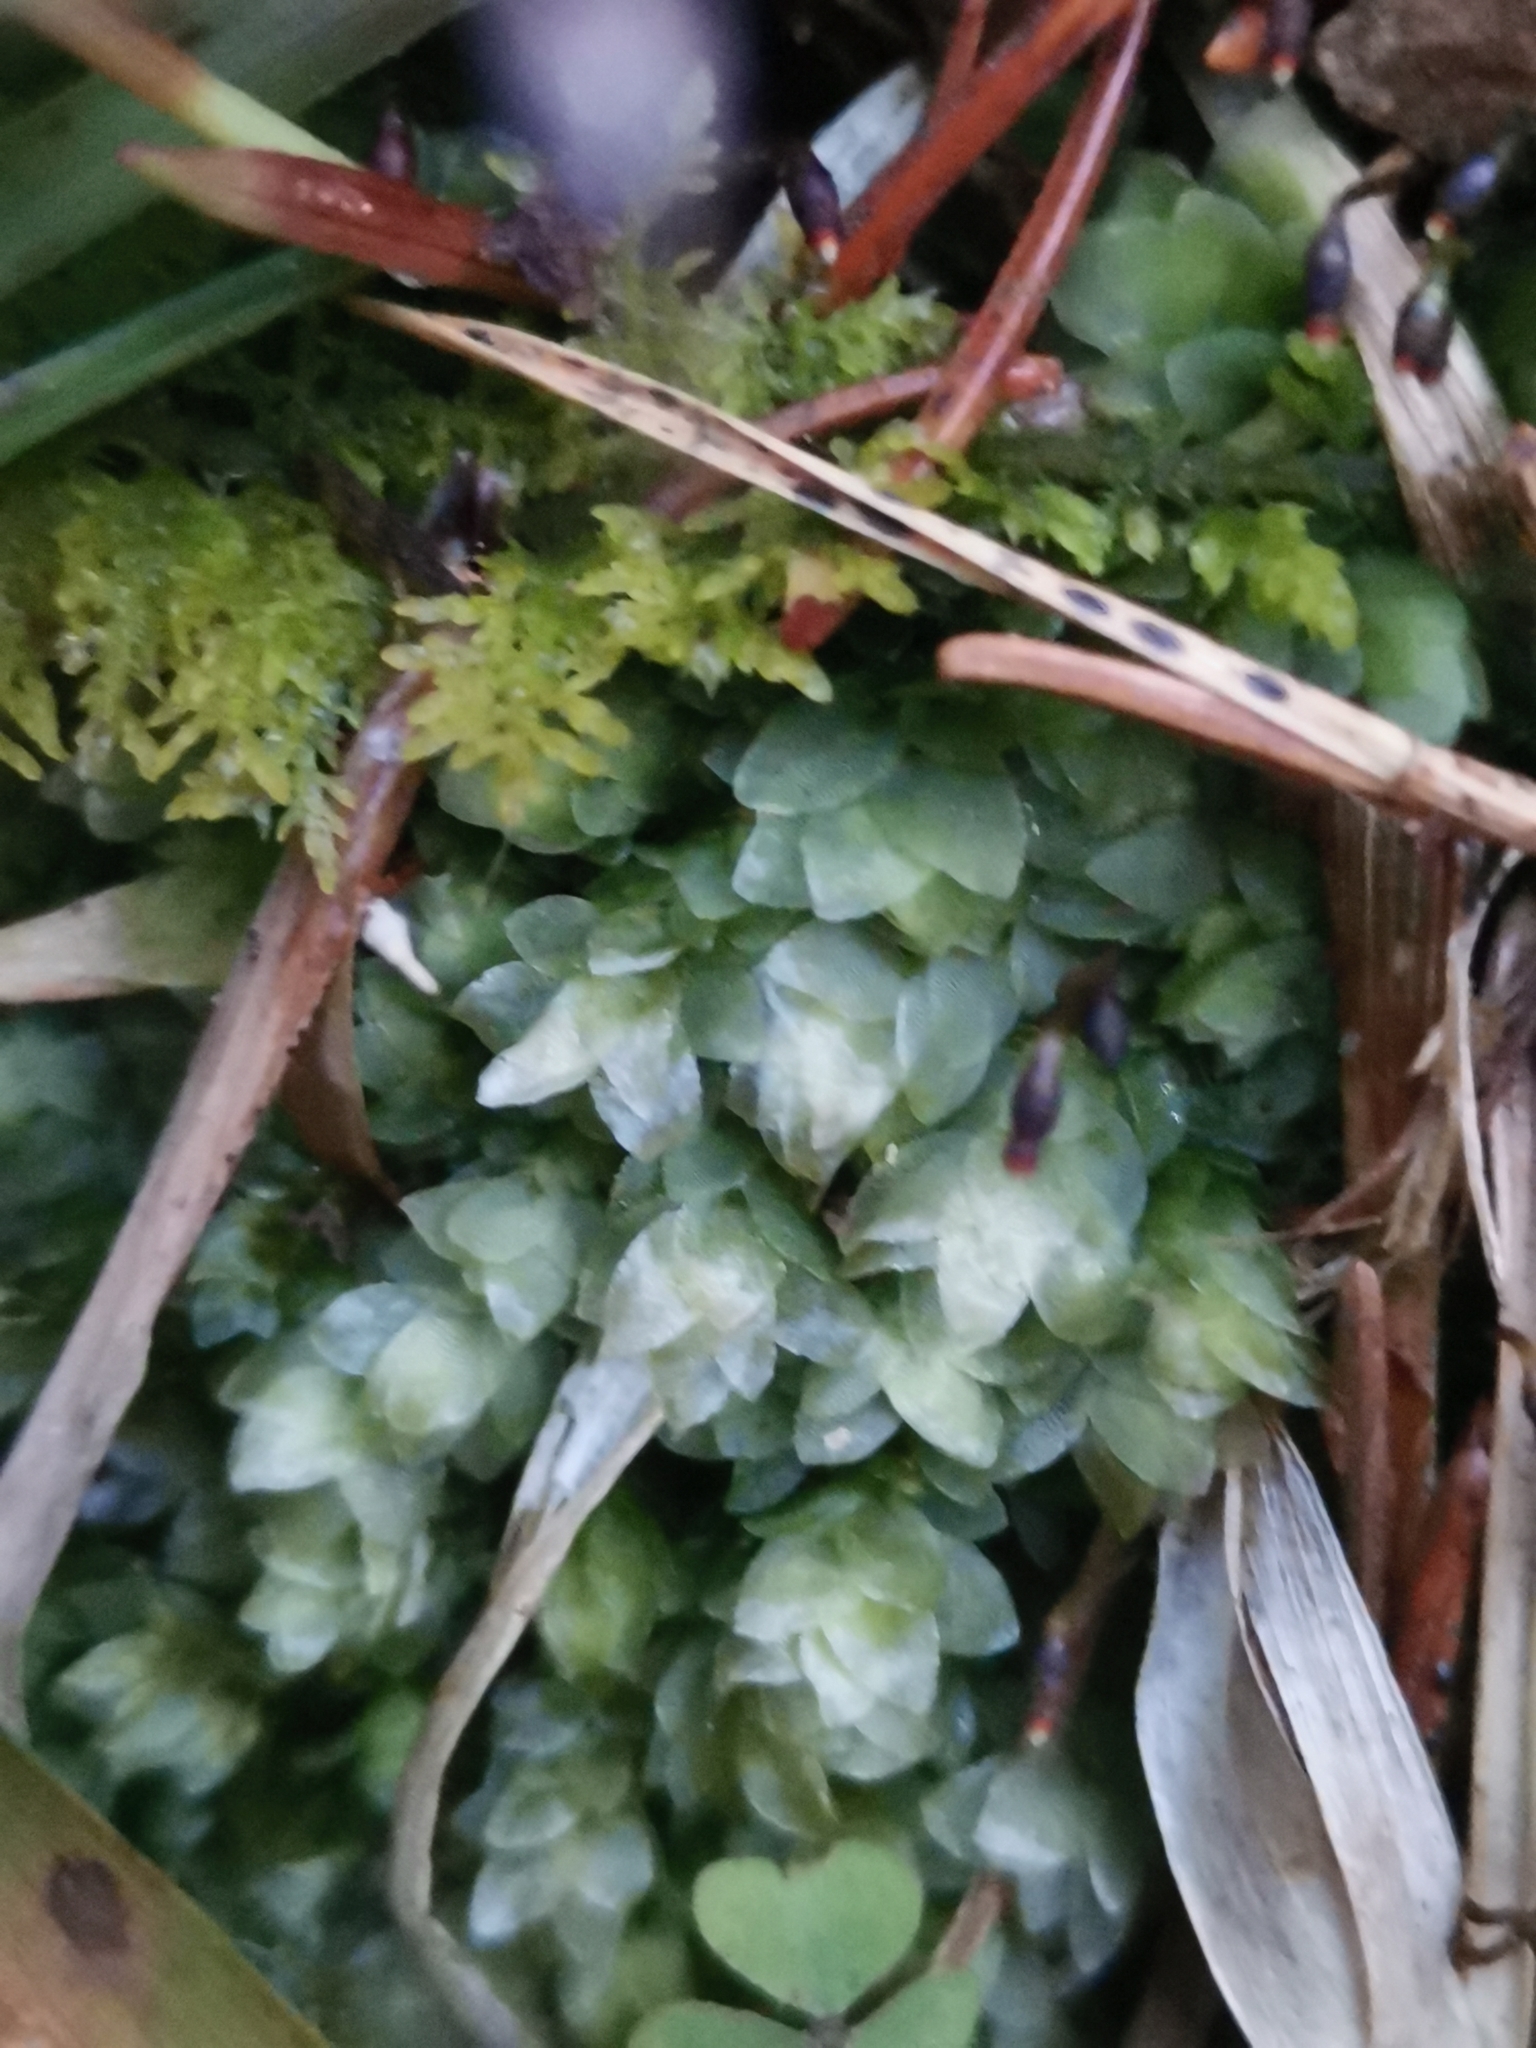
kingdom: Plantae
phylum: Bryophyta
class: Bryopsida
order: Hookeriales
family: Hookeriaceae
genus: Hookeria
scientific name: Hookeria lucens
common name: Shining hookeria
